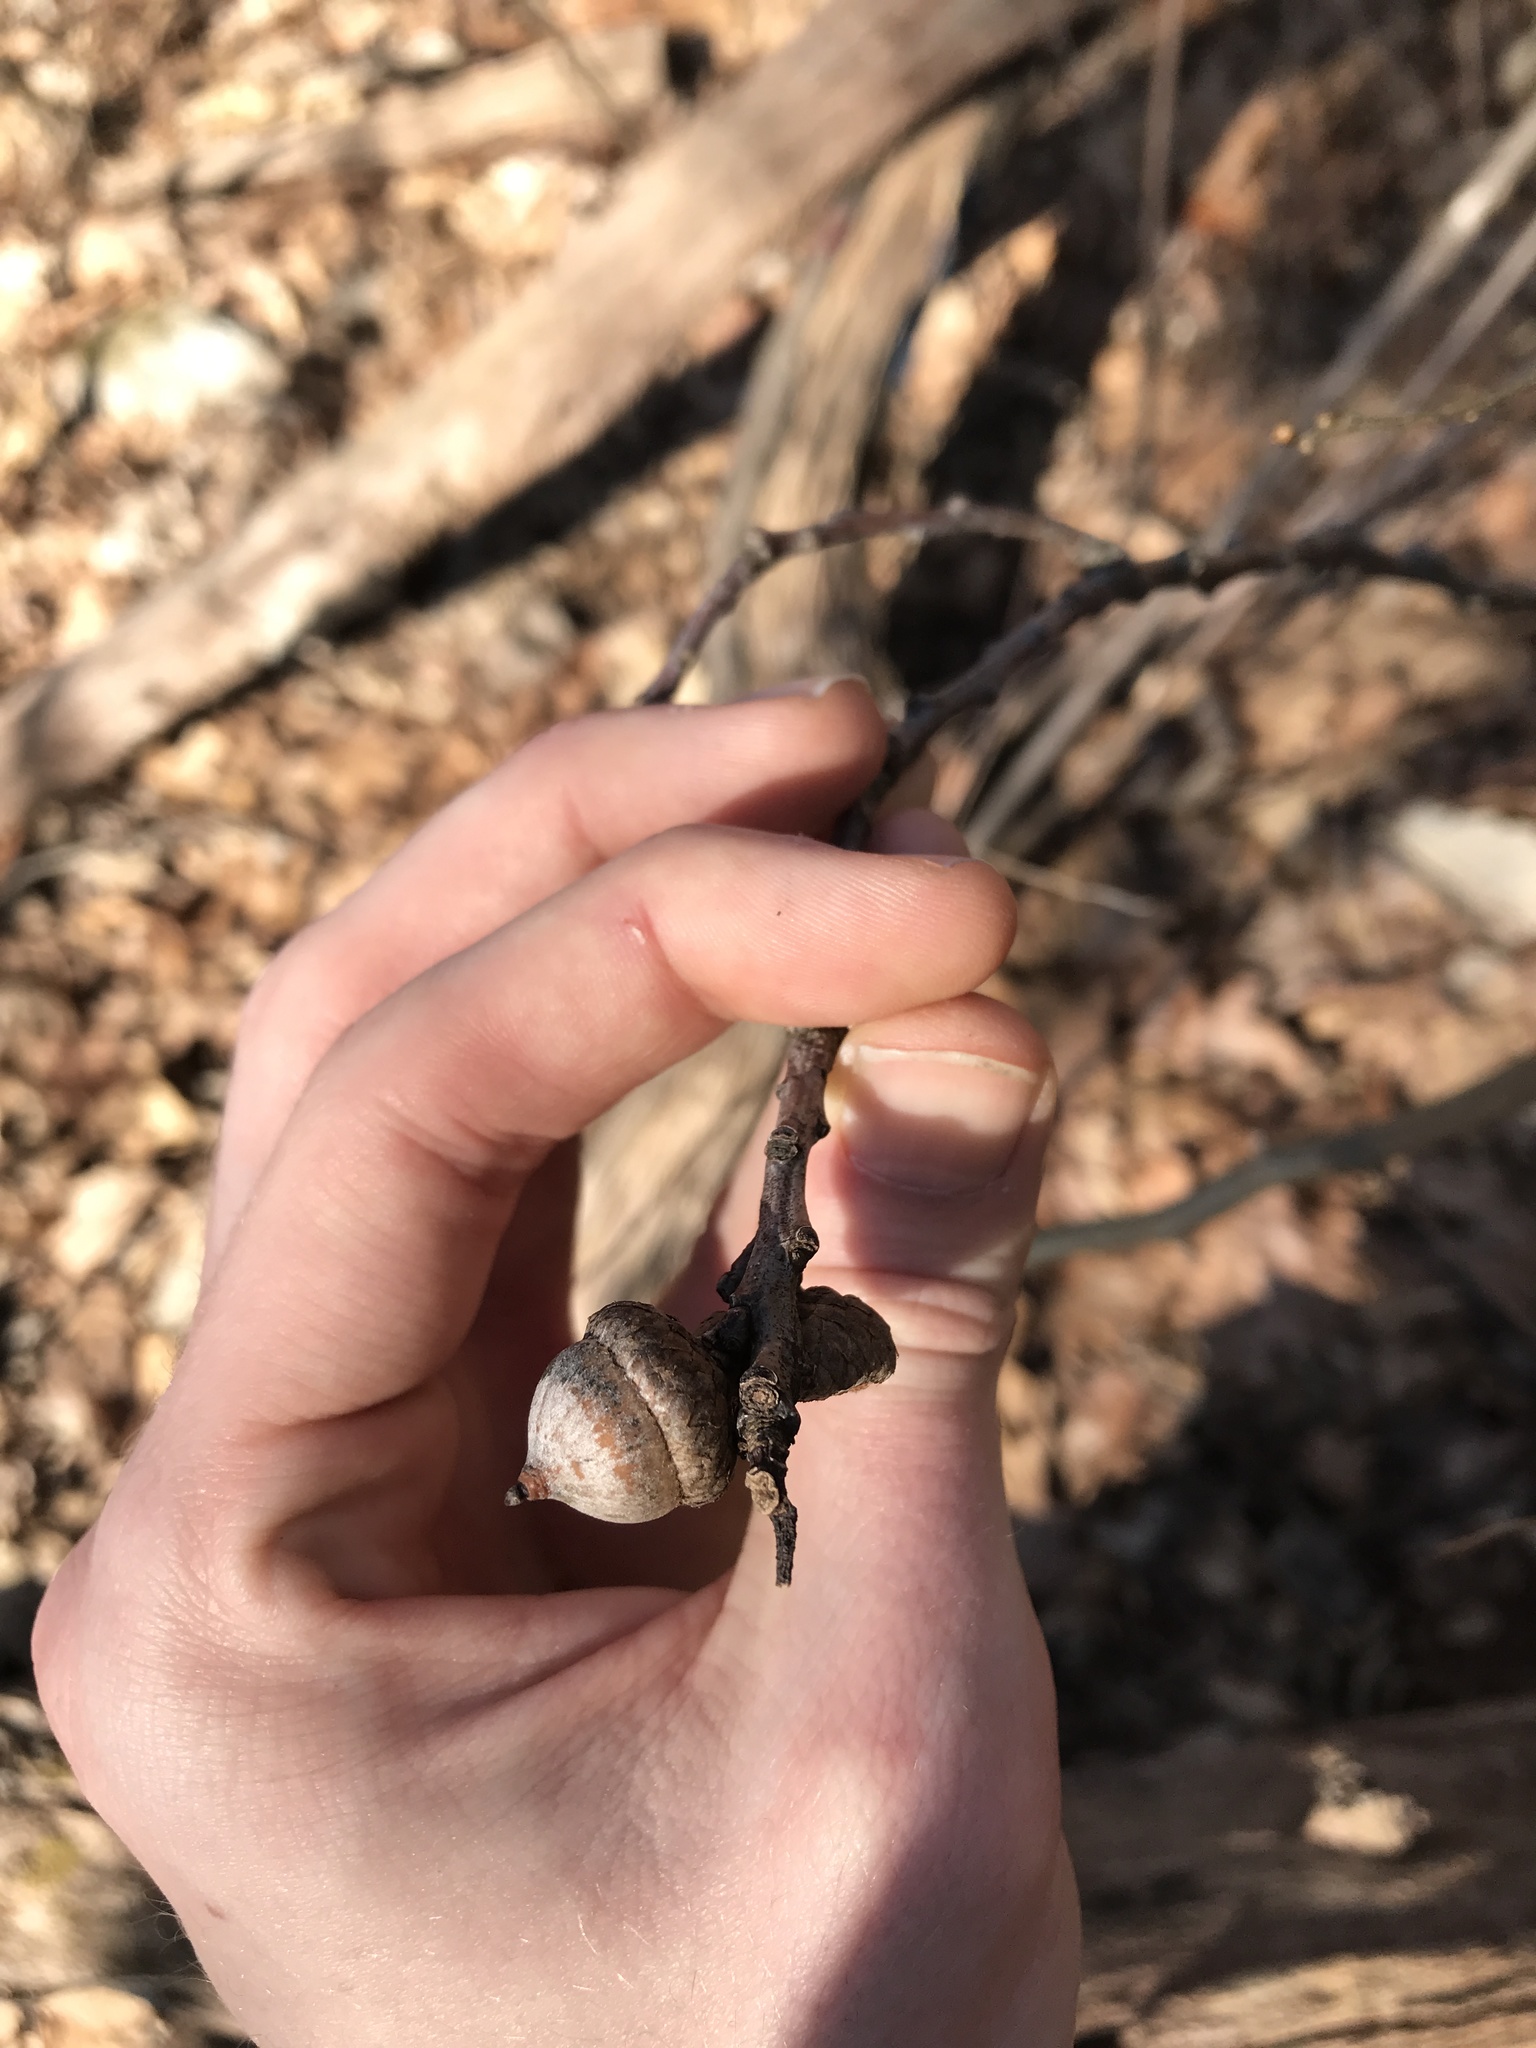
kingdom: Plantae
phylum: Tracheophyta
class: Magnoliopsida
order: Fagales
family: Fagaceae
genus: Quercus
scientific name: Quercus rubra
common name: Red oak
